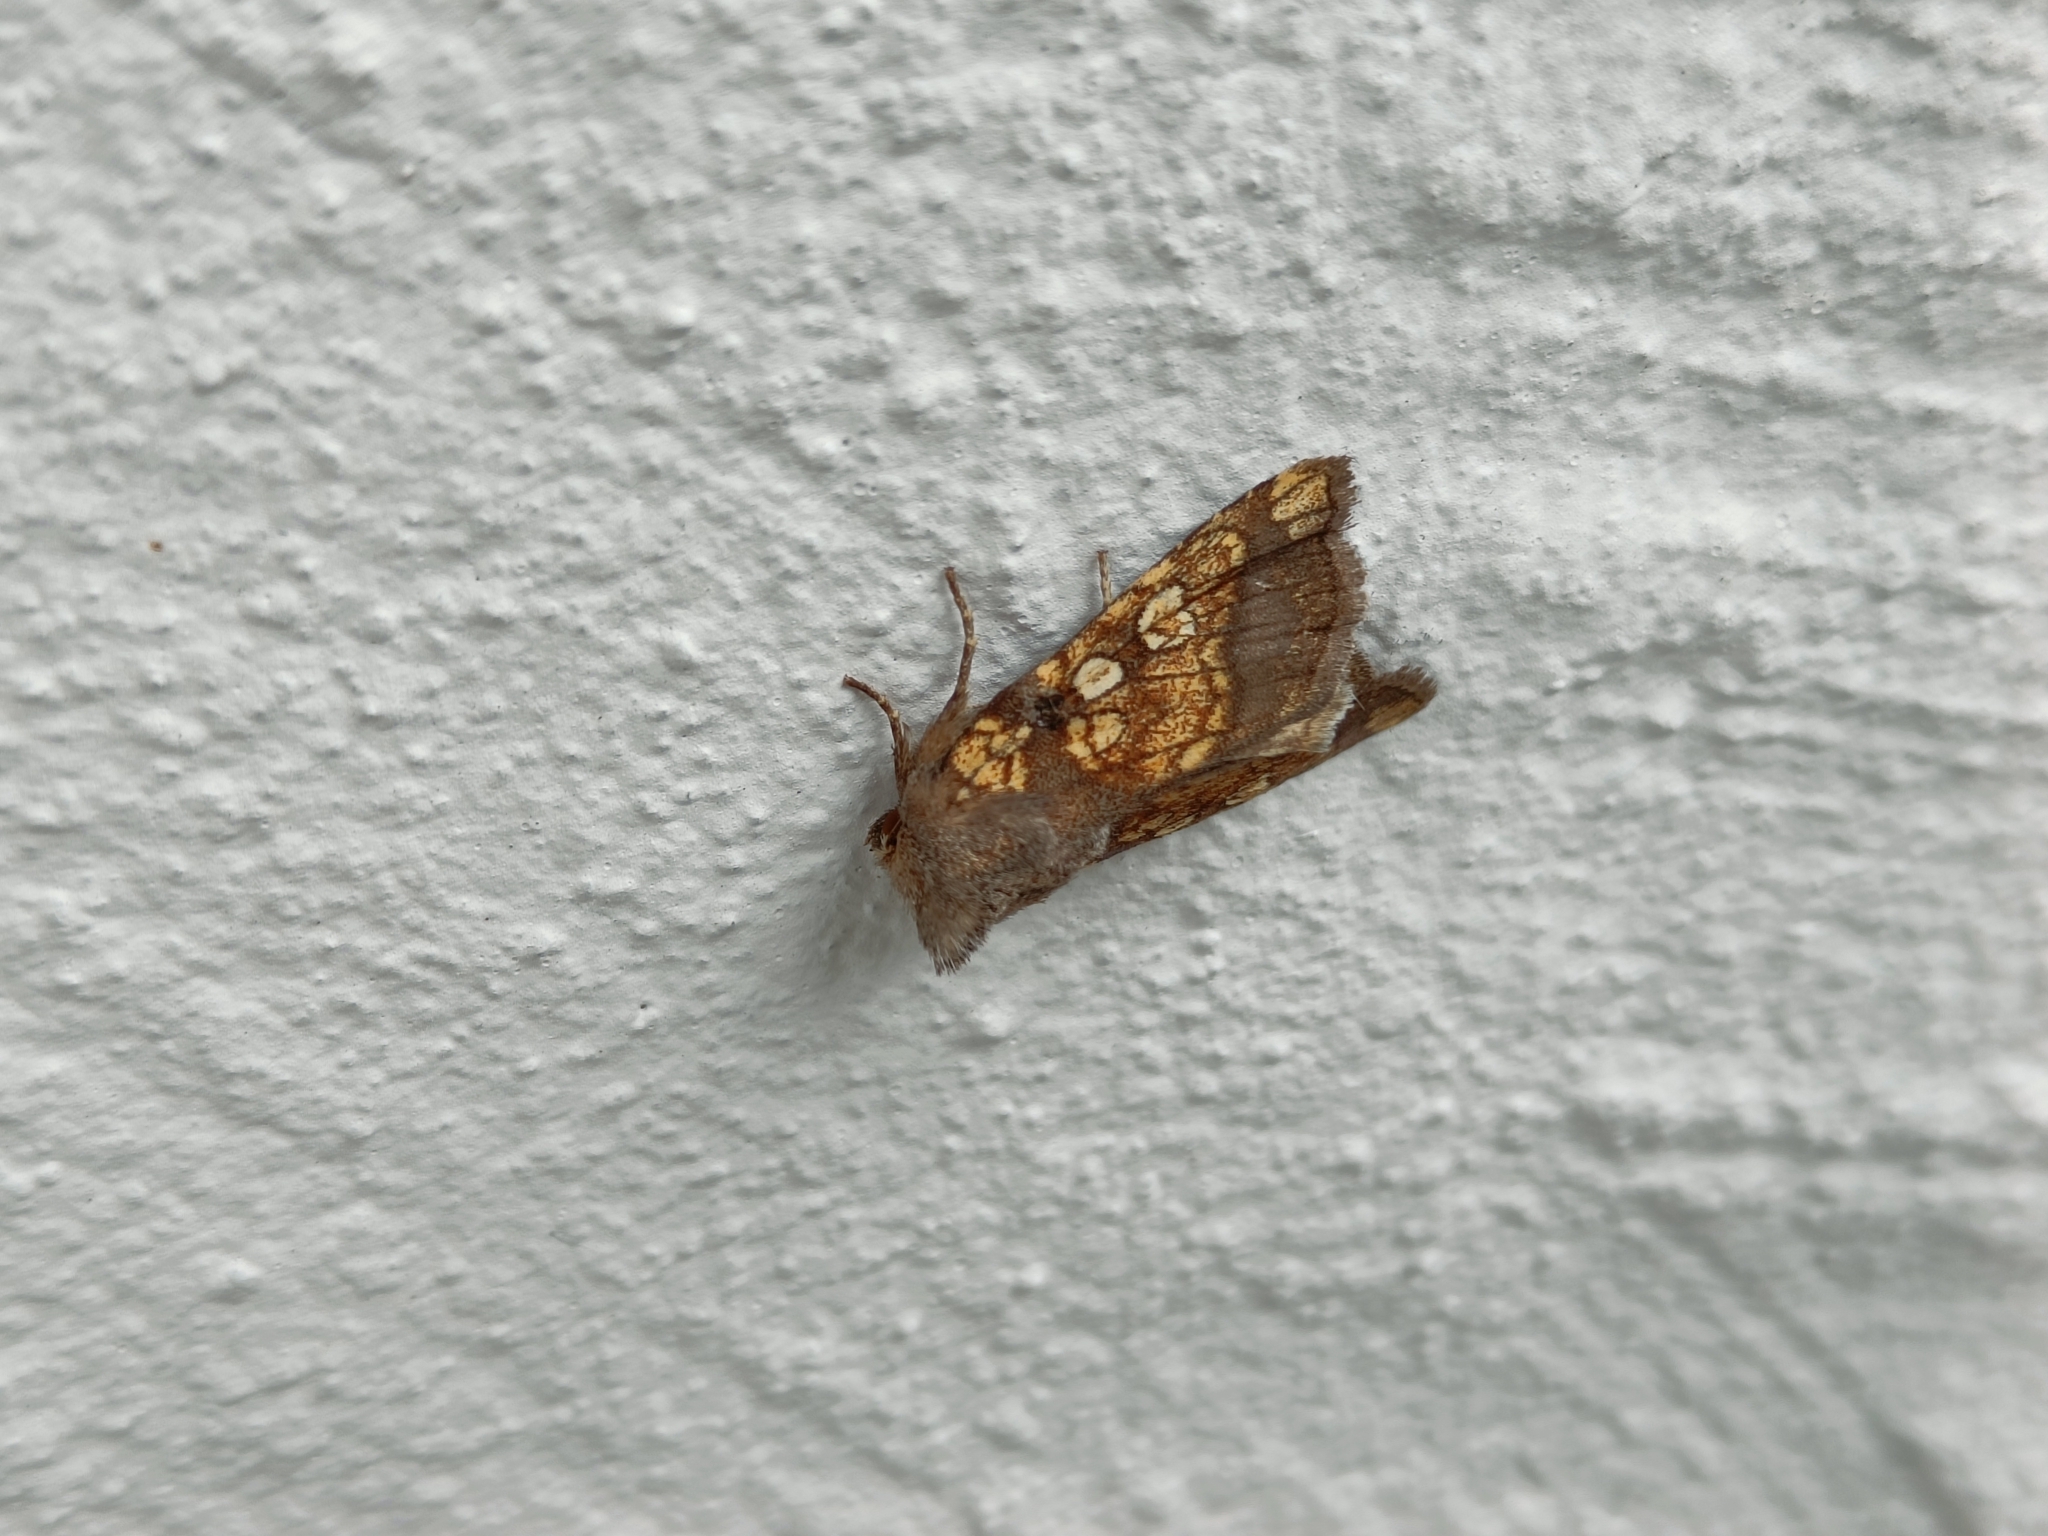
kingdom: Animalia
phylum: Arthropoda
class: Insecta
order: Lepidoptera
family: Noctuidae
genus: Gortyna
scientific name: Gortyna flavago
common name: Frosted orange
